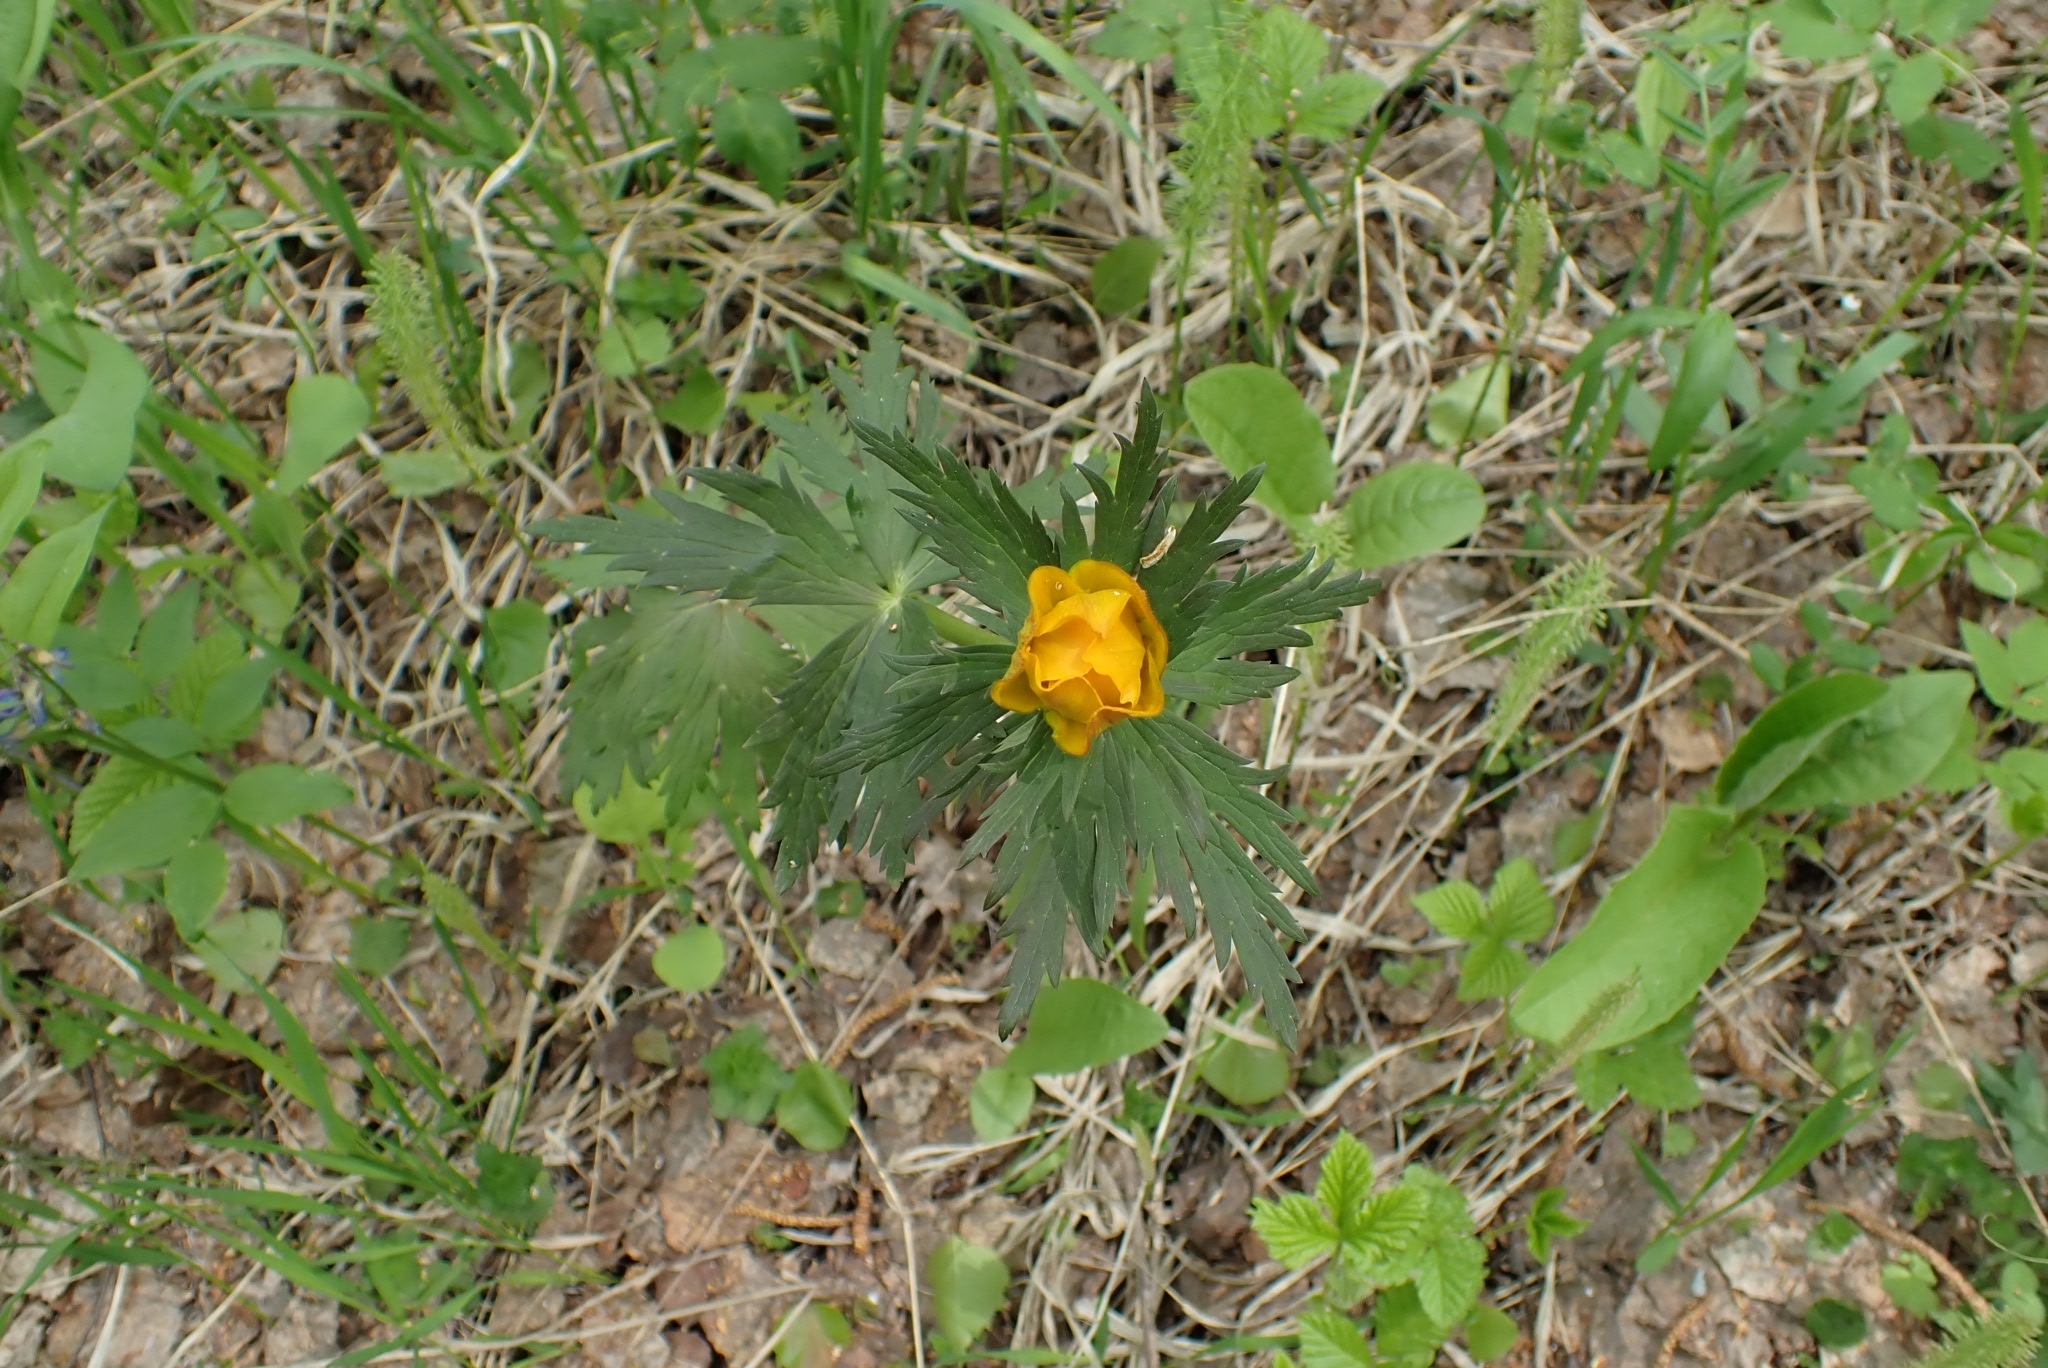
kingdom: Plantae
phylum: Tracheophyta
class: Magnoliopsida
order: Ranunculales
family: Ranunculaceae
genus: Trollius
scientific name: Trollius asiaticus
